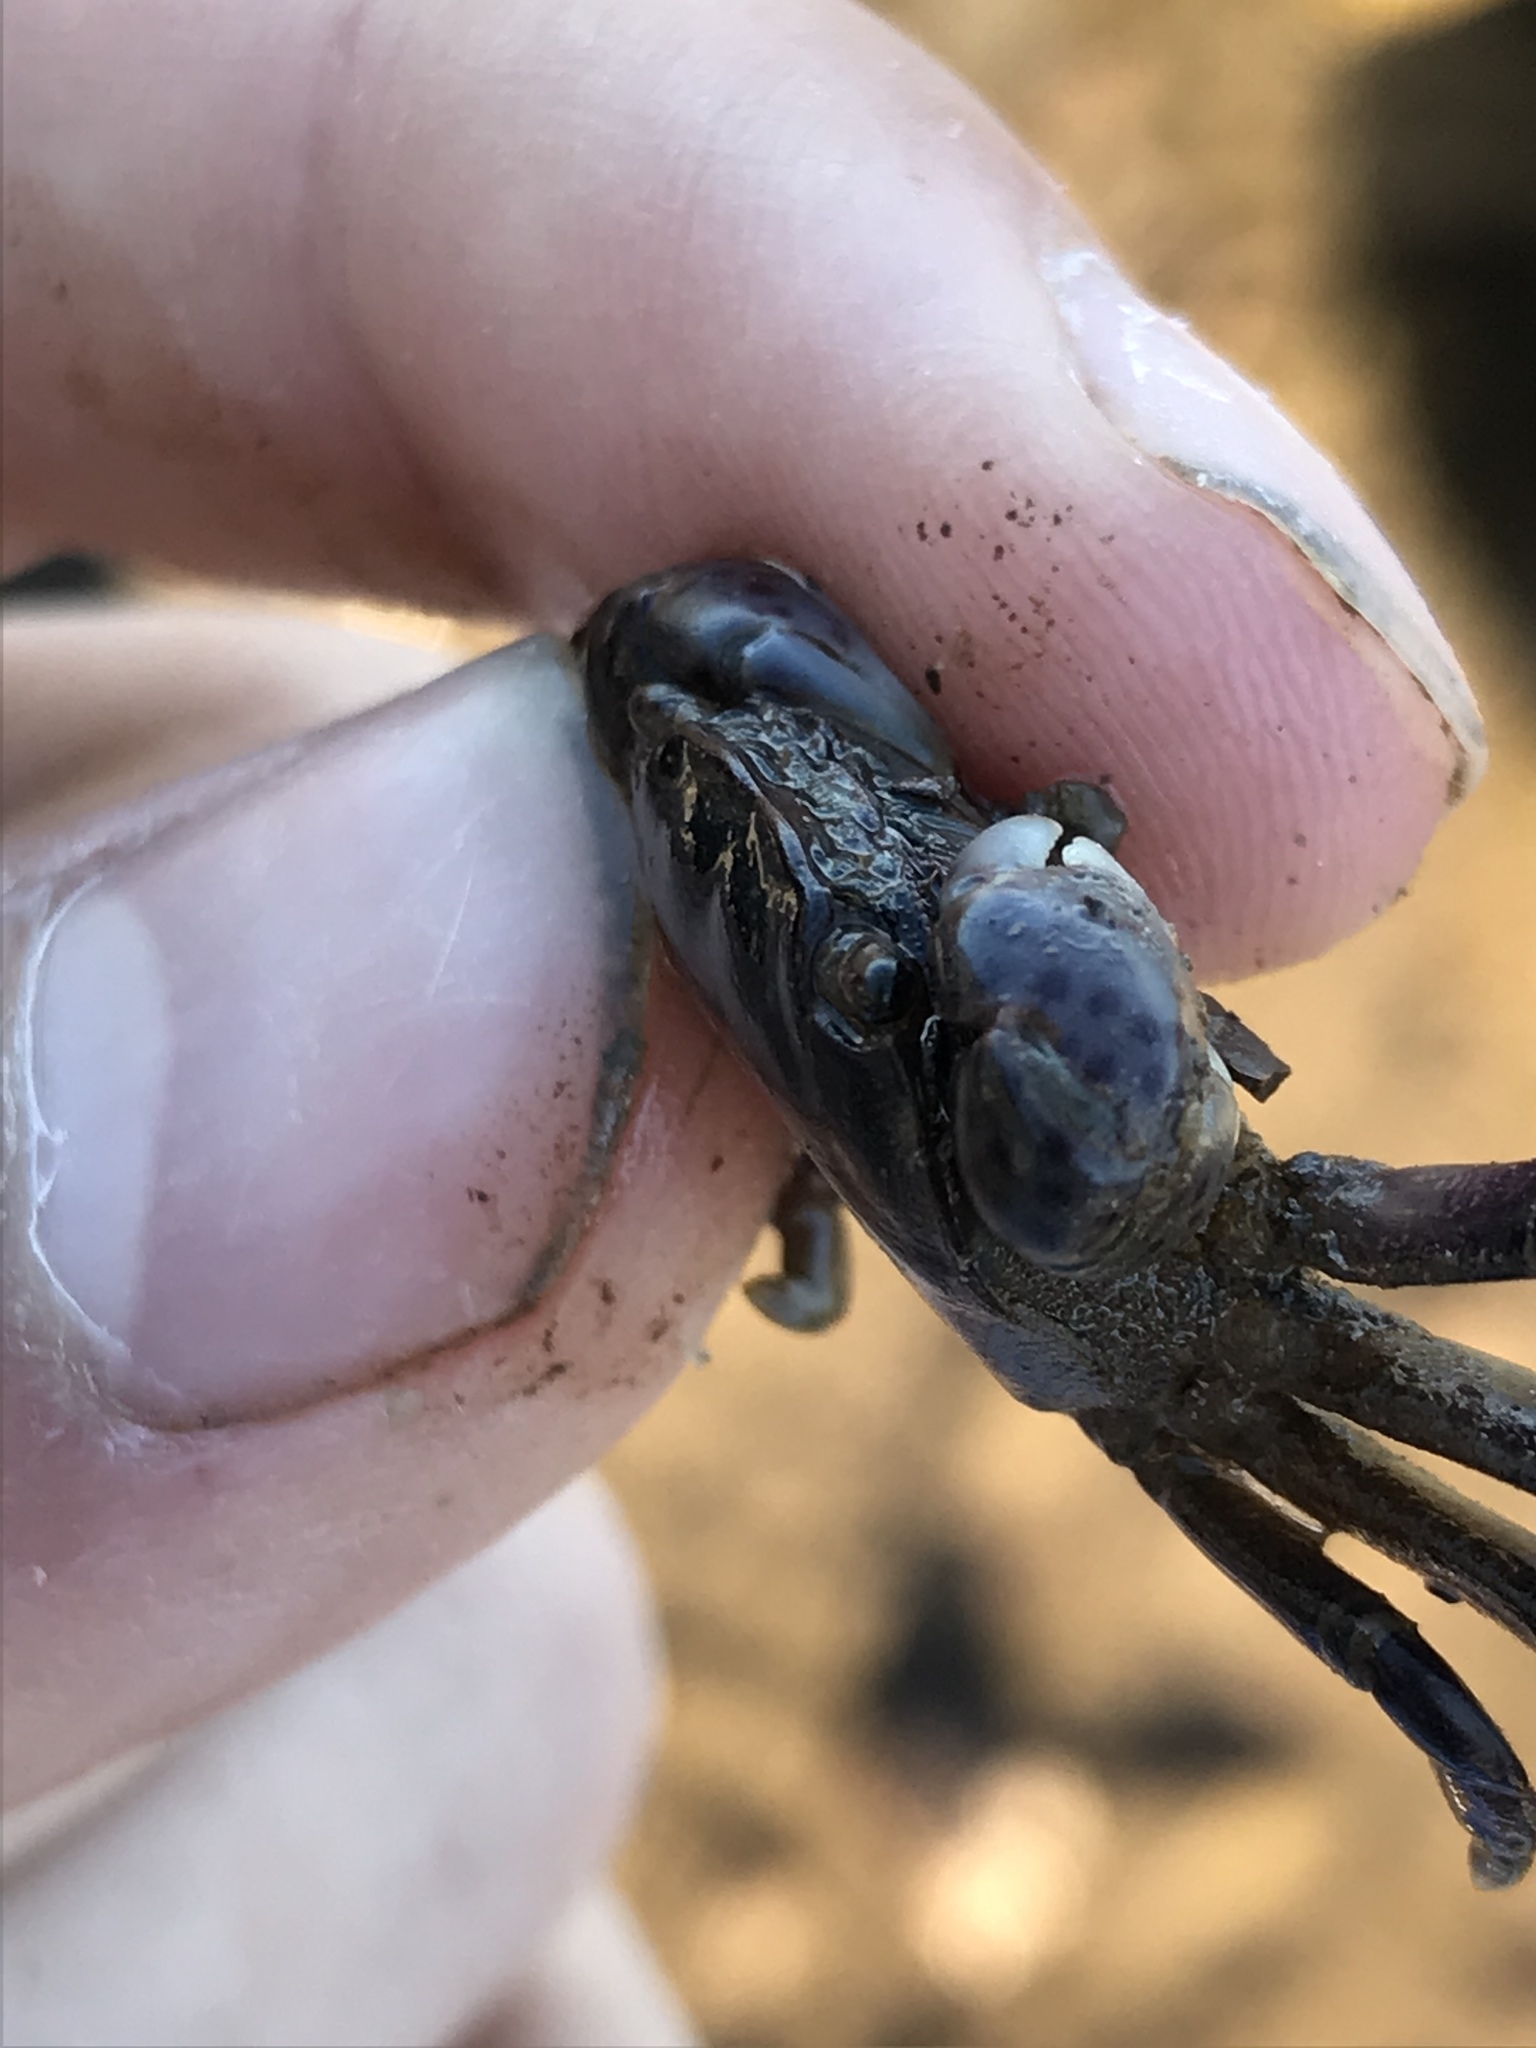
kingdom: Animalia
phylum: Arthropoda
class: Malacostraca
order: Decapoda
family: Varunidae
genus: Hemigrapsus
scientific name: Hemigrapsus nudus
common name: Purple shore crab
